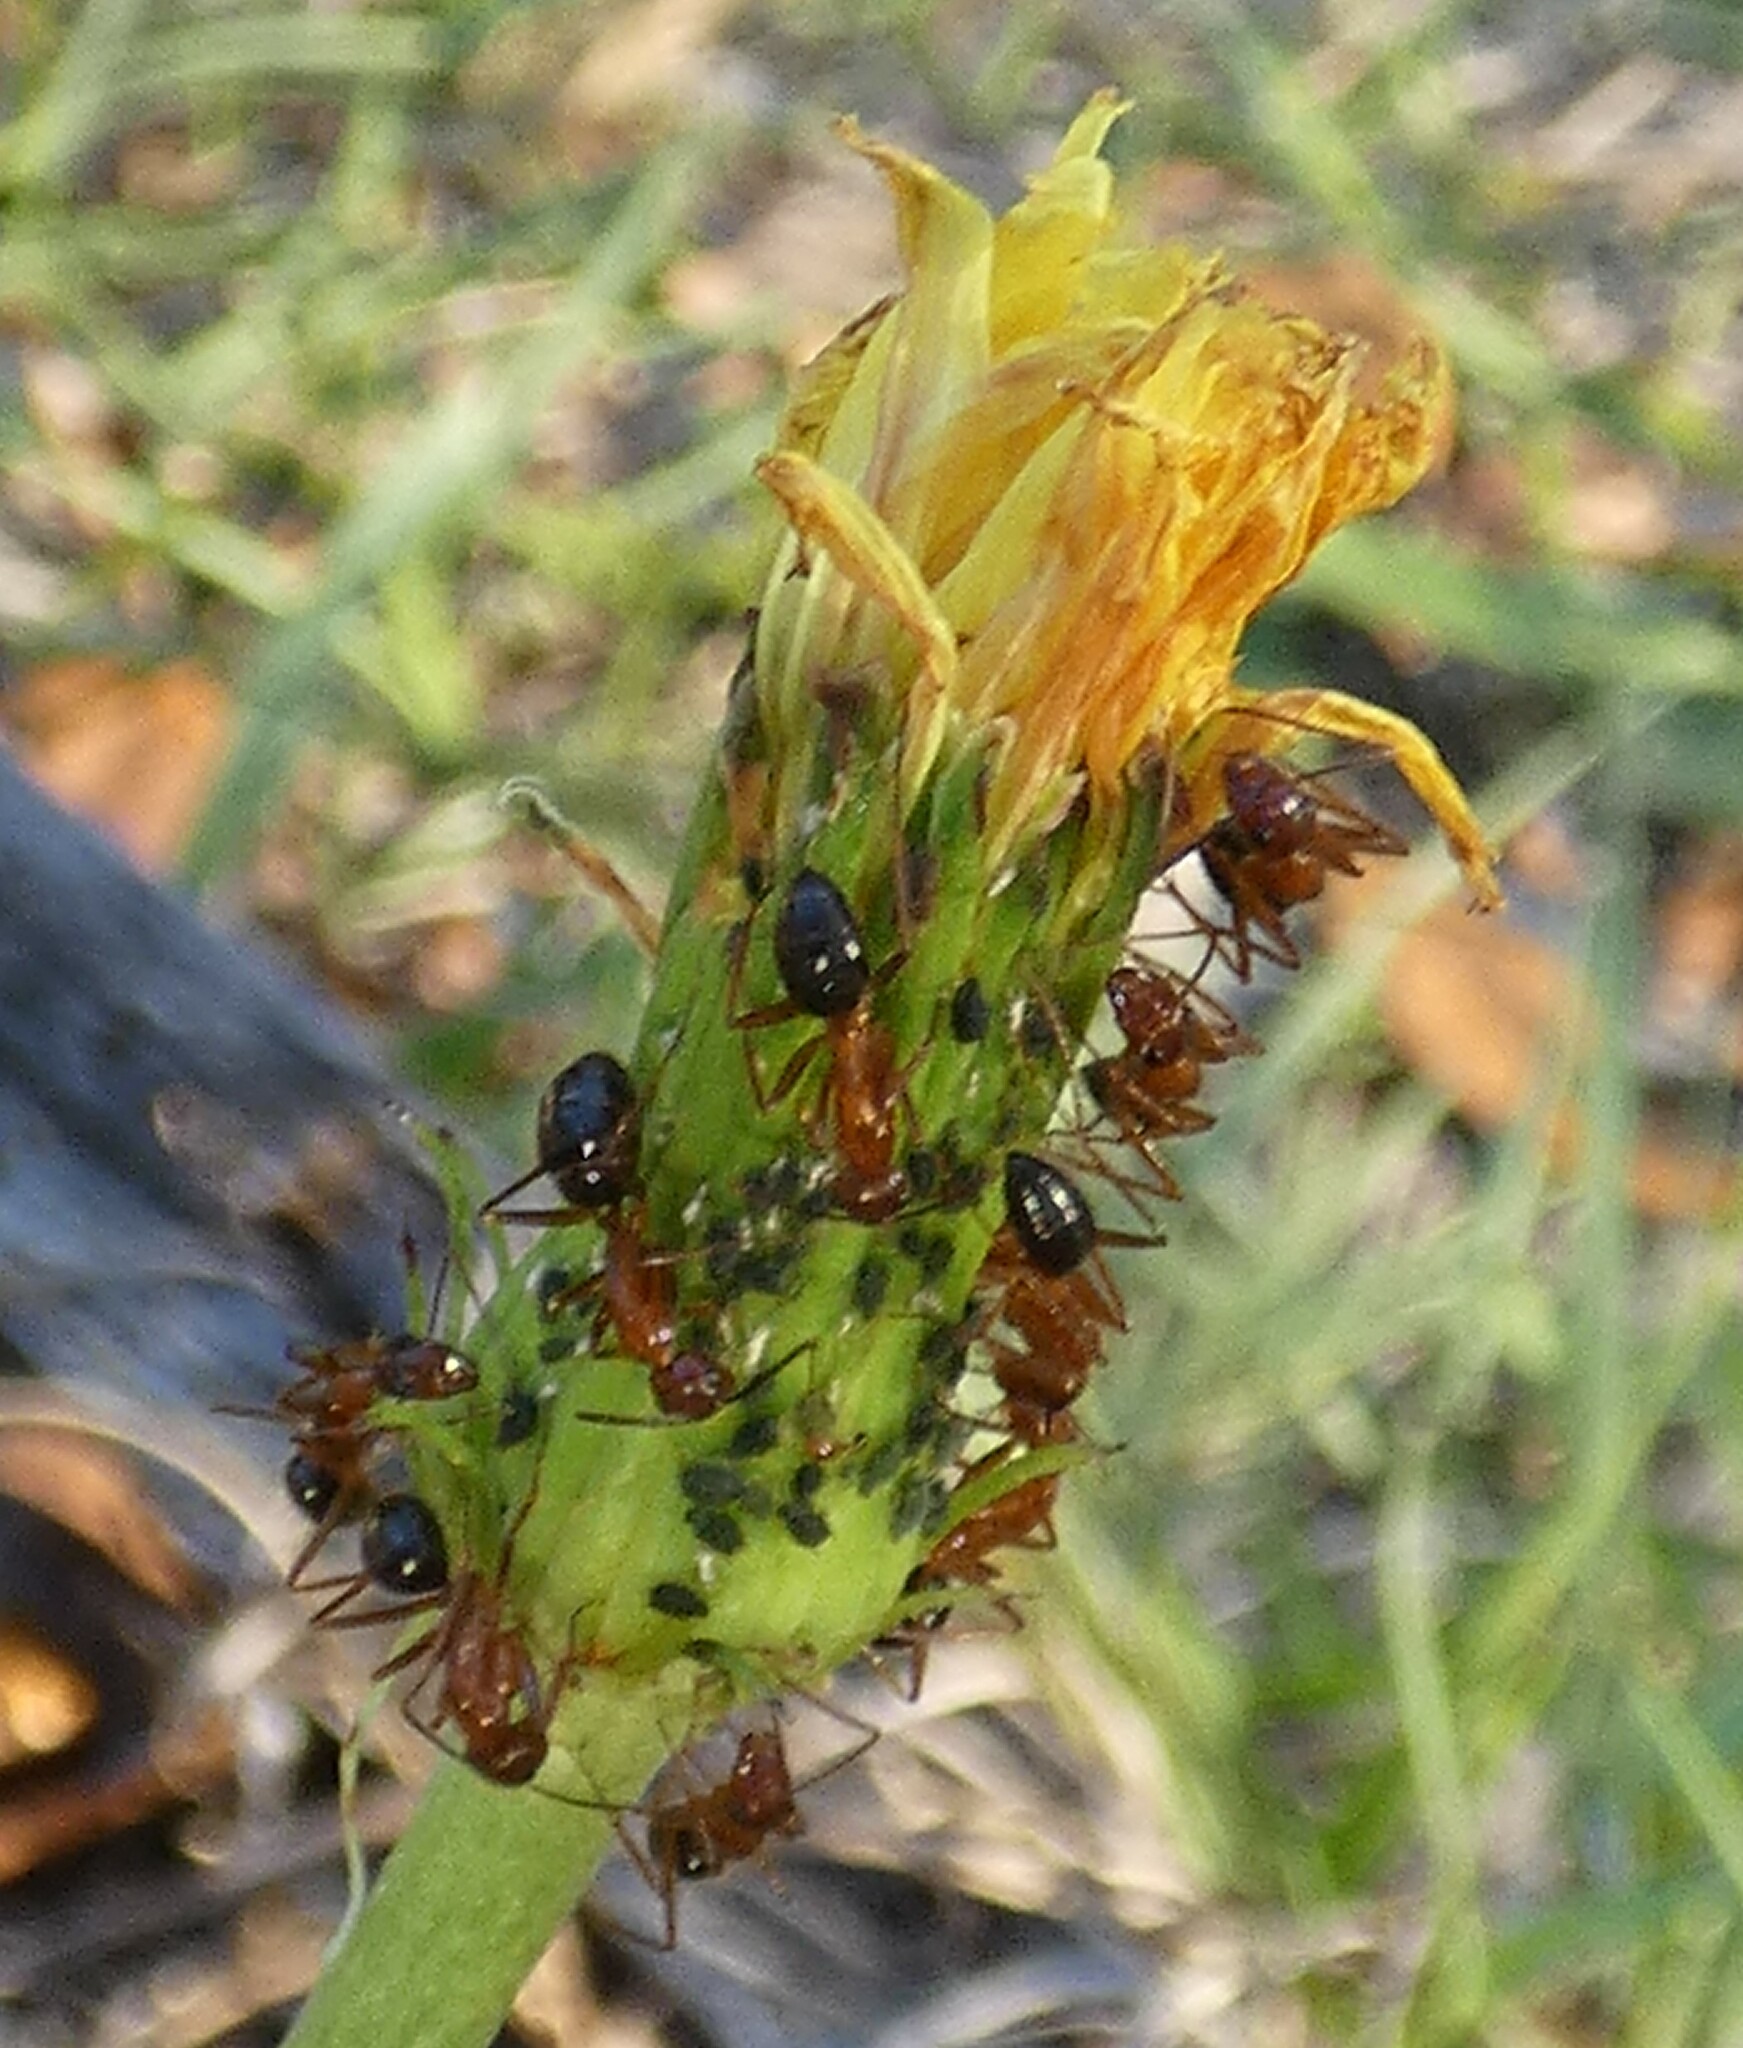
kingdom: Animalia
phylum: Arthropoda
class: Insecta
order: Hymenoptera
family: Formicidae
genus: Camponotus
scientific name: Camponotus floridanus
